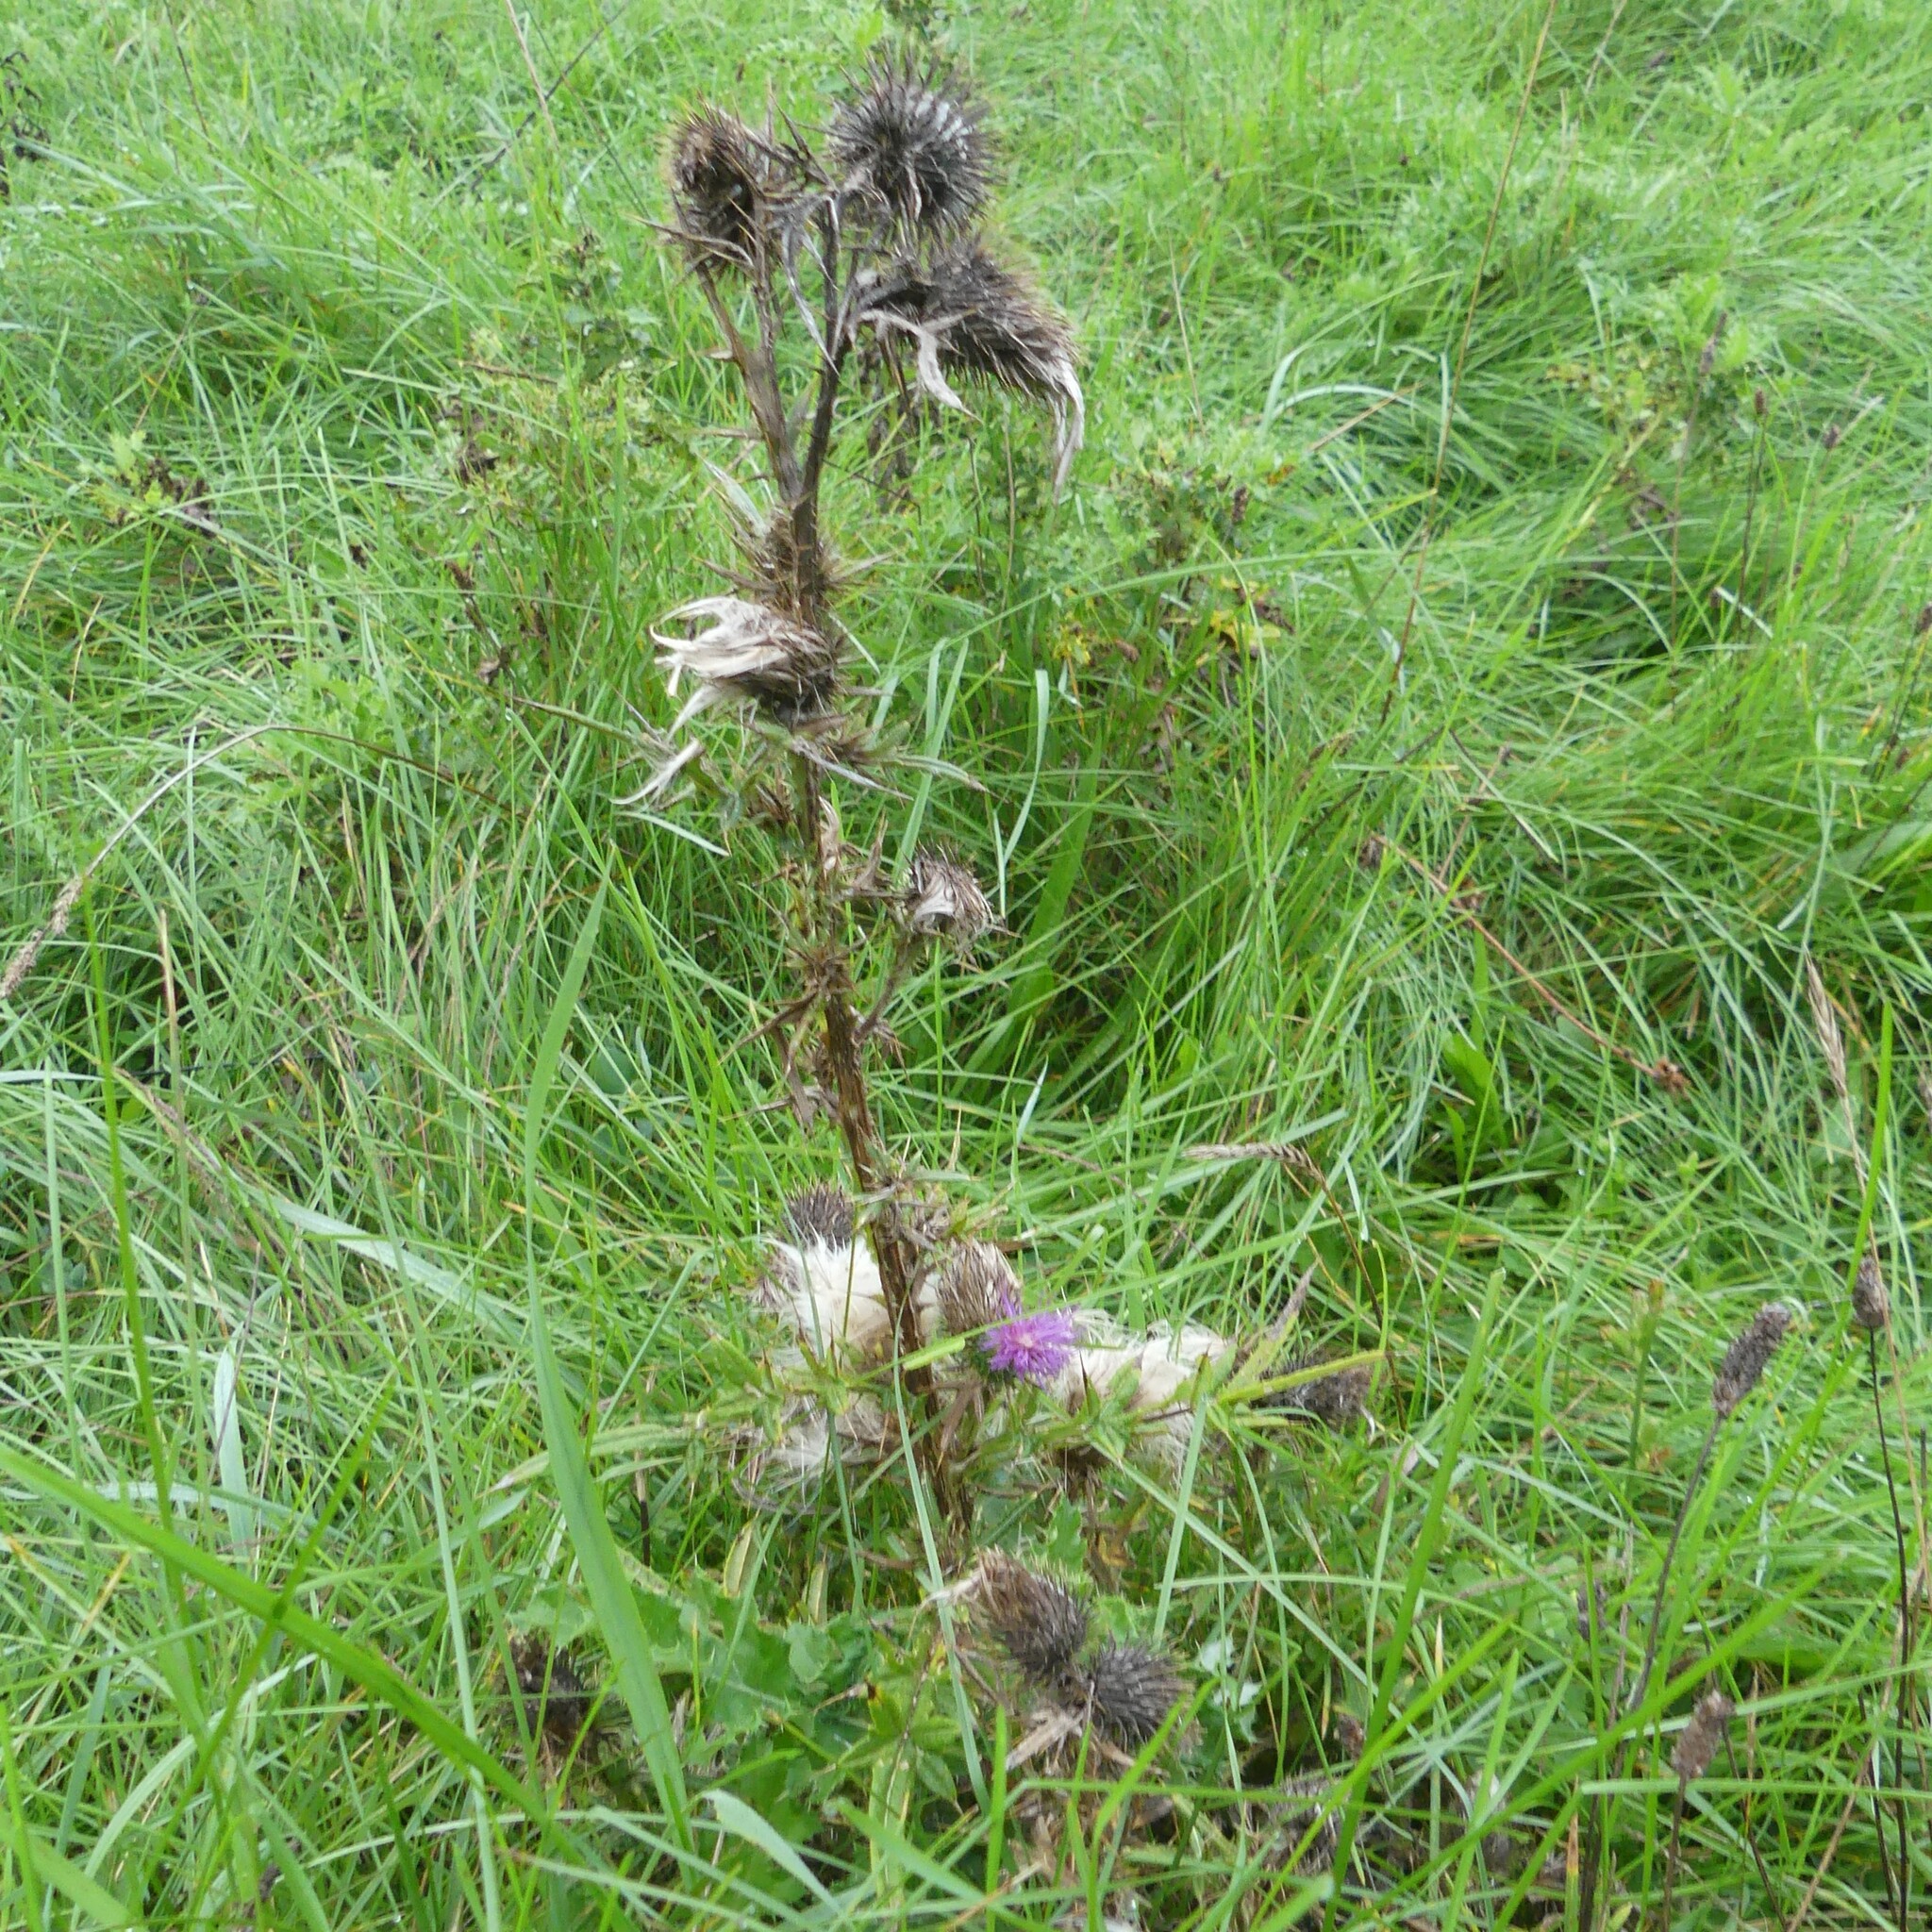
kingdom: Plantae
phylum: Tracheophyta
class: Magnoliopsida
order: Asterales
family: Asteraceae
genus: Cirsium
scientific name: Cirsium vulgare
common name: Bull thistle
